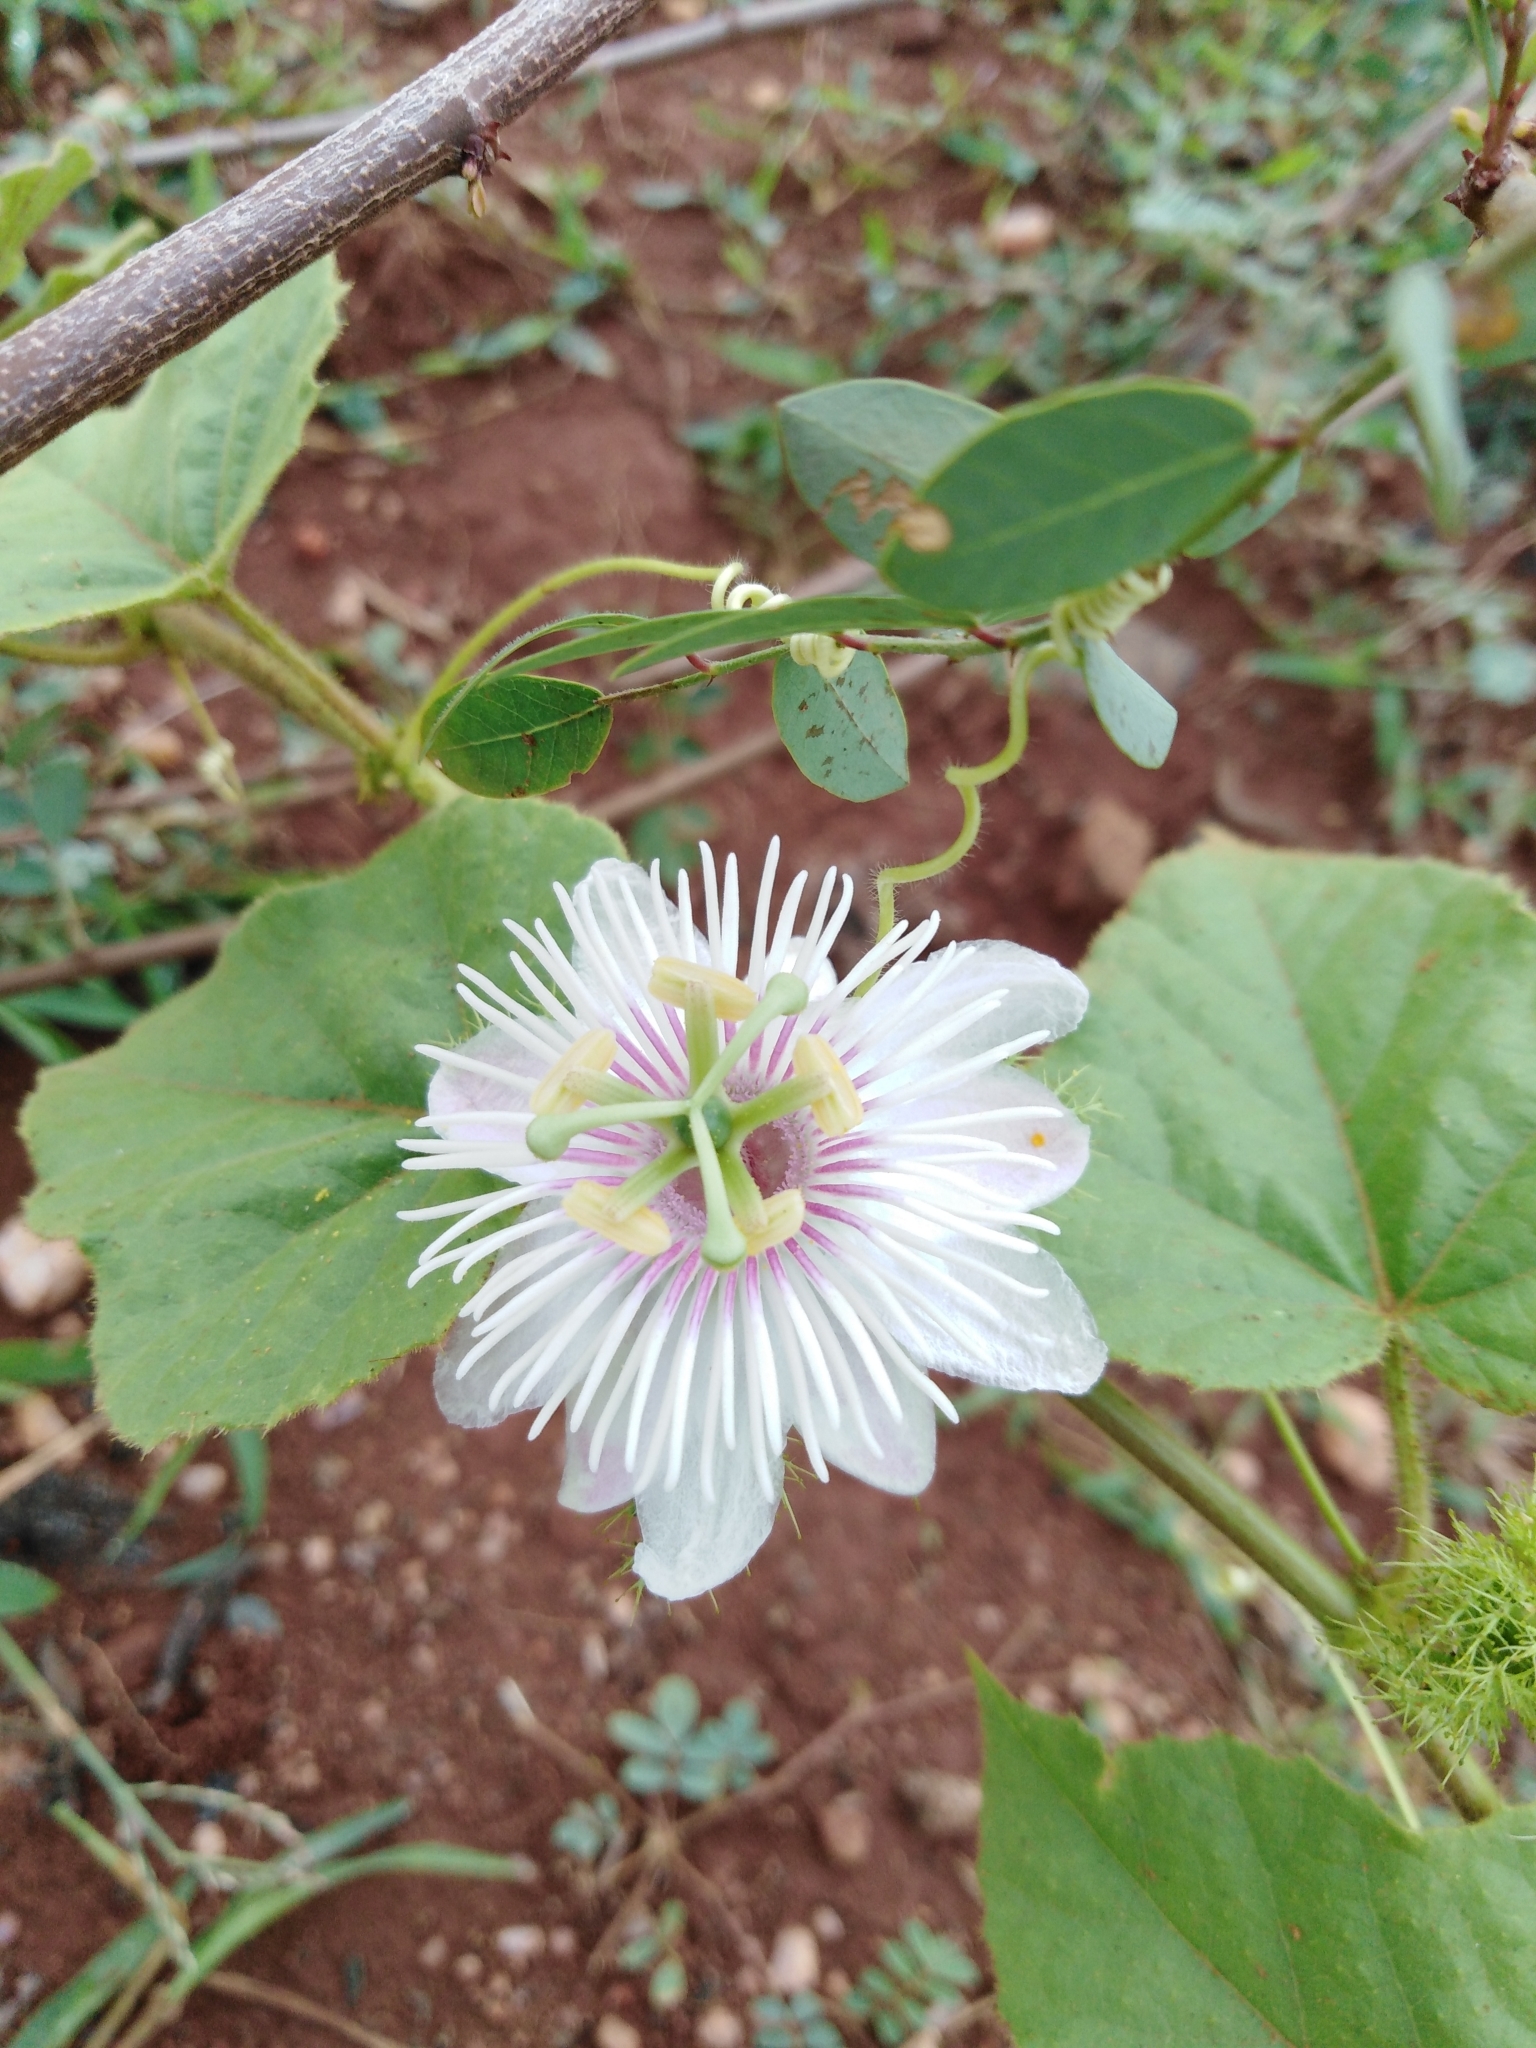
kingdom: Plantae
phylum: Tracheophyta
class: Magnoliopsida
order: Malpighiales
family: Passifloraceae
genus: Passiflora
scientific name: Passiflora foetida
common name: Fetid passionflower
